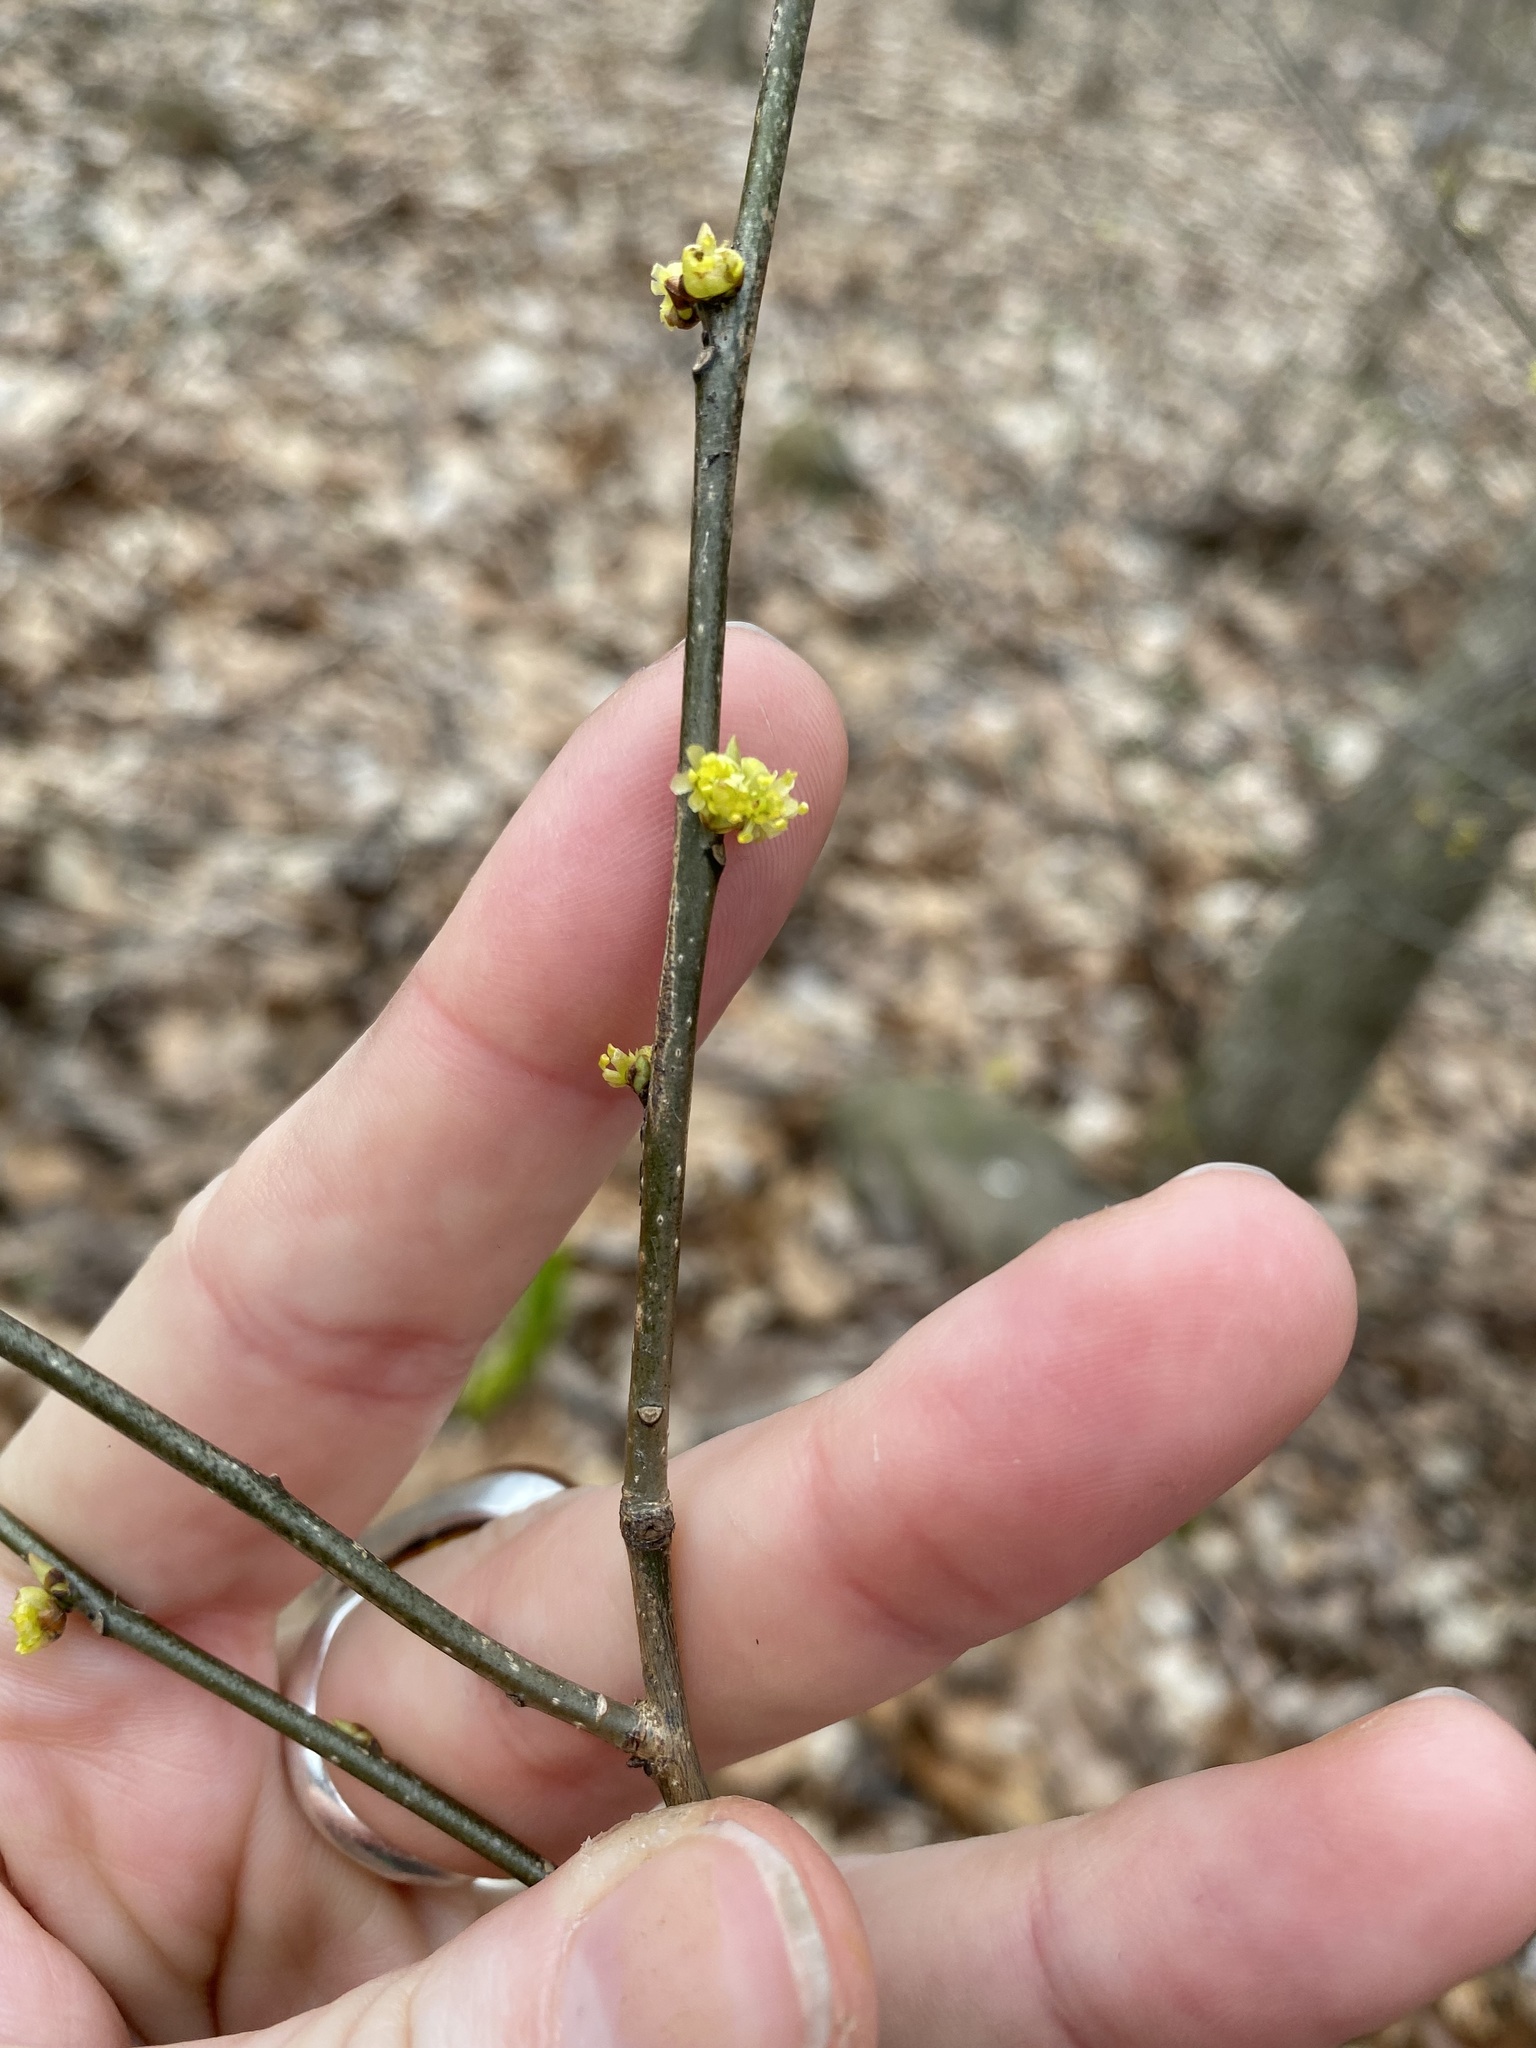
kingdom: Plantae
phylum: Tracheophyta
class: Magnoliopsida
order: Laurales
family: Lauraceae
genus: Lindera
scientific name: Lindera benzoin
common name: Spicebush
